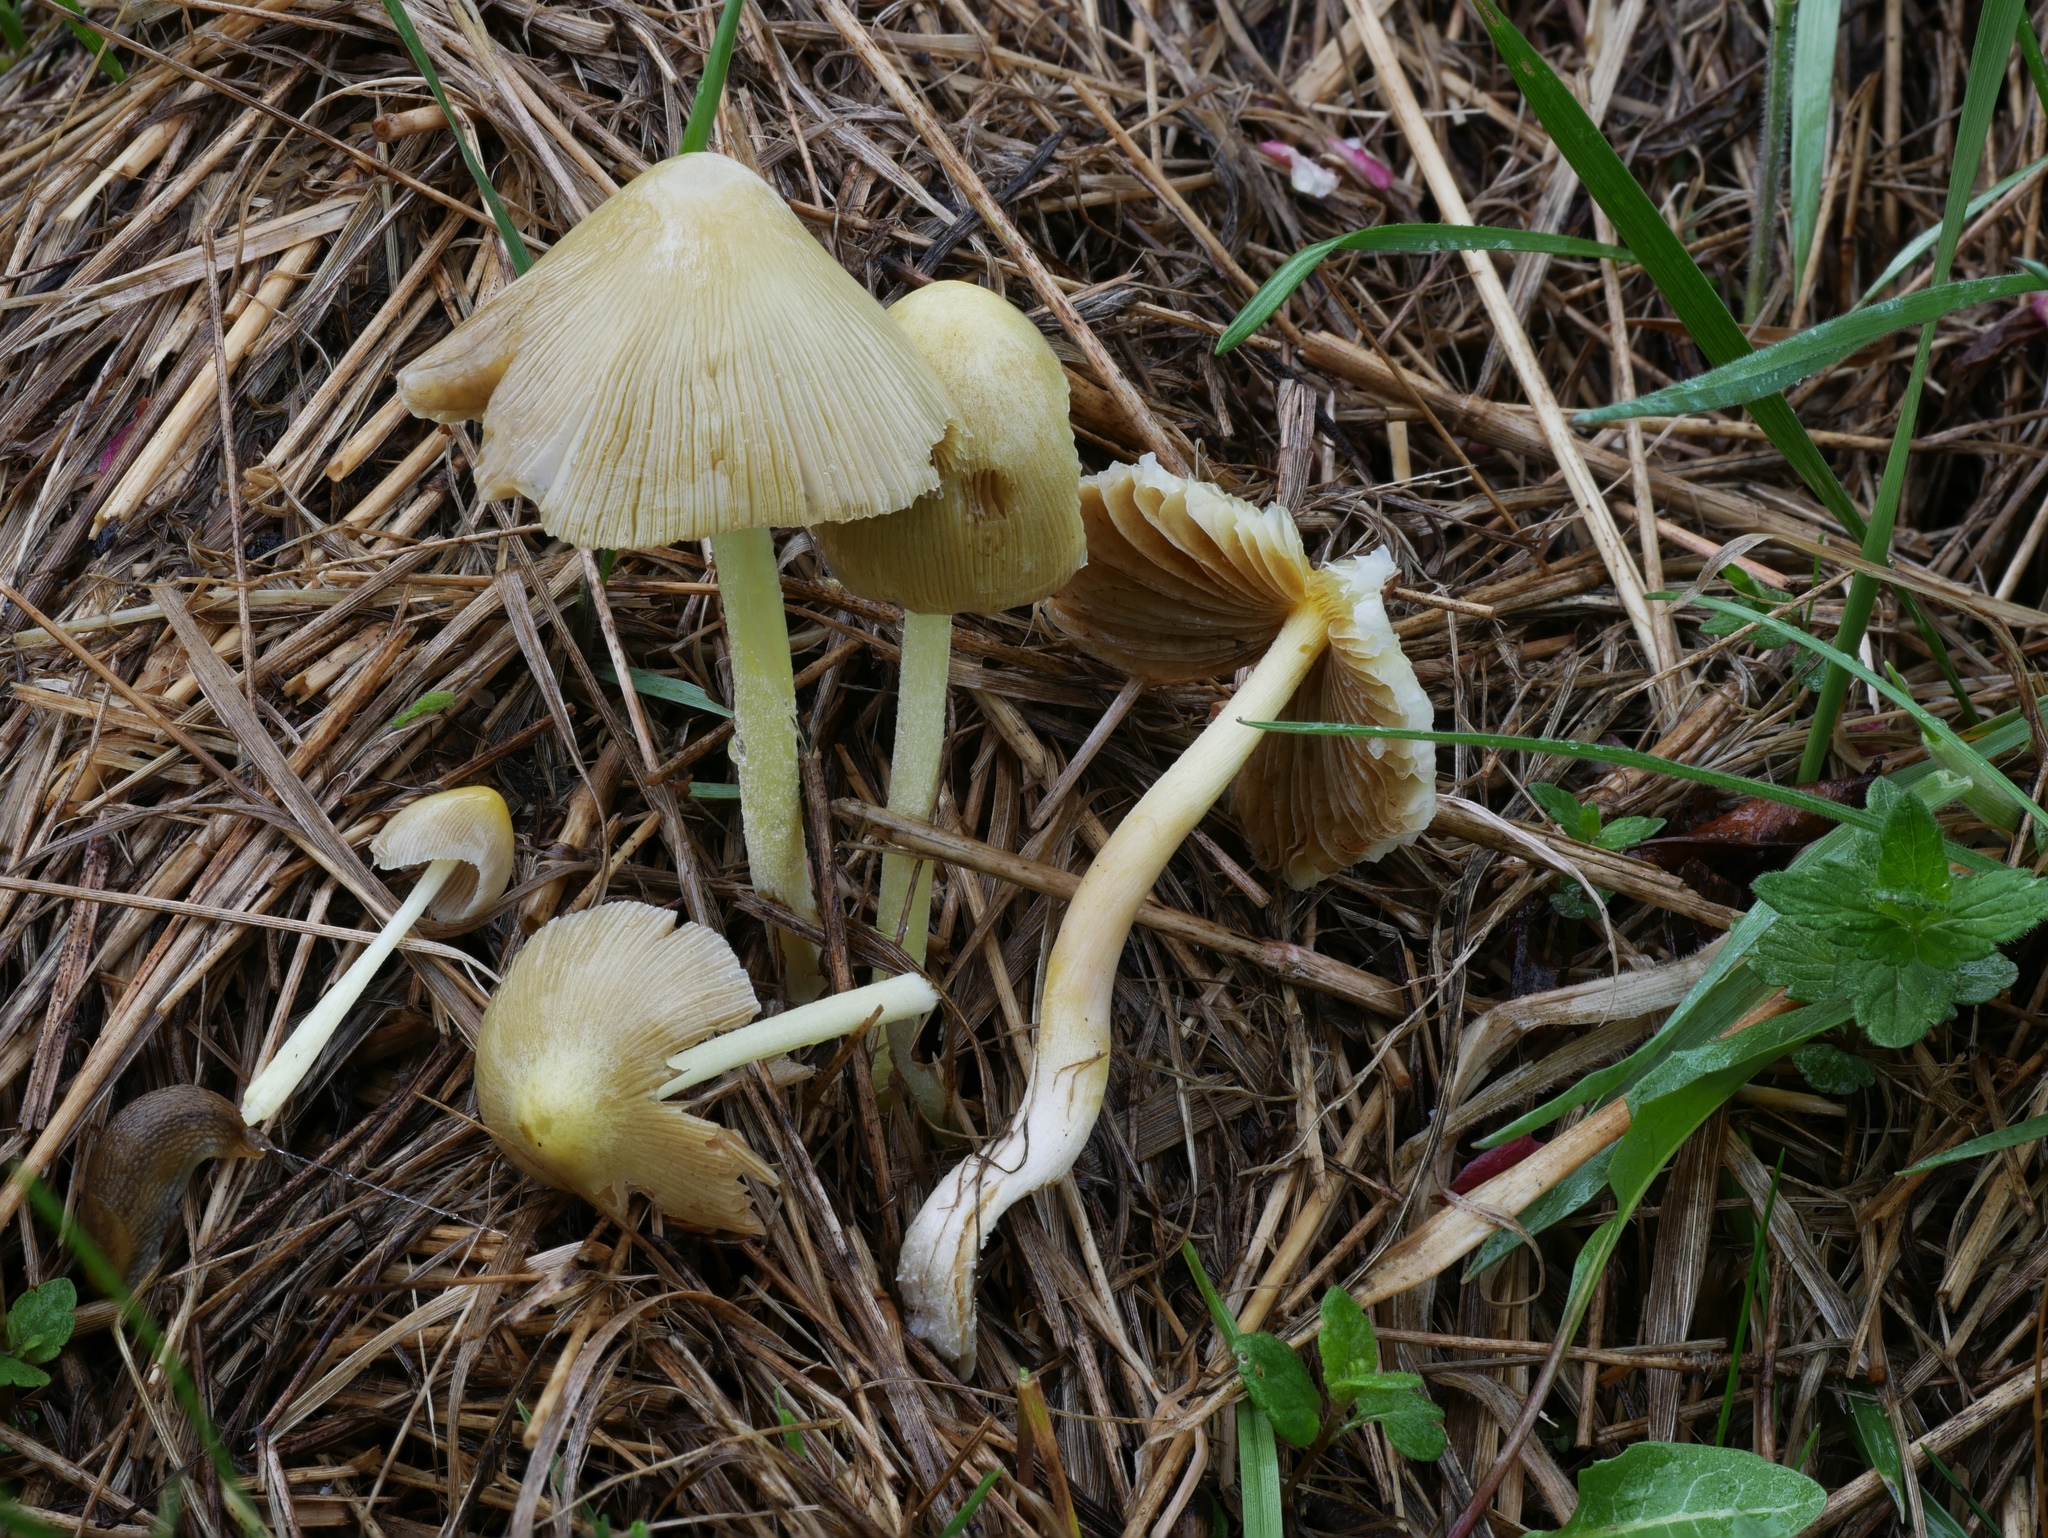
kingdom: Fungi
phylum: Basidiomycota
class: Agaricomycetes
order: Agaricales
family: Bolbitiaceae
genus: Bolbitius
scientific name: Bolbitius titubans
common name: Yellow fieldcap
